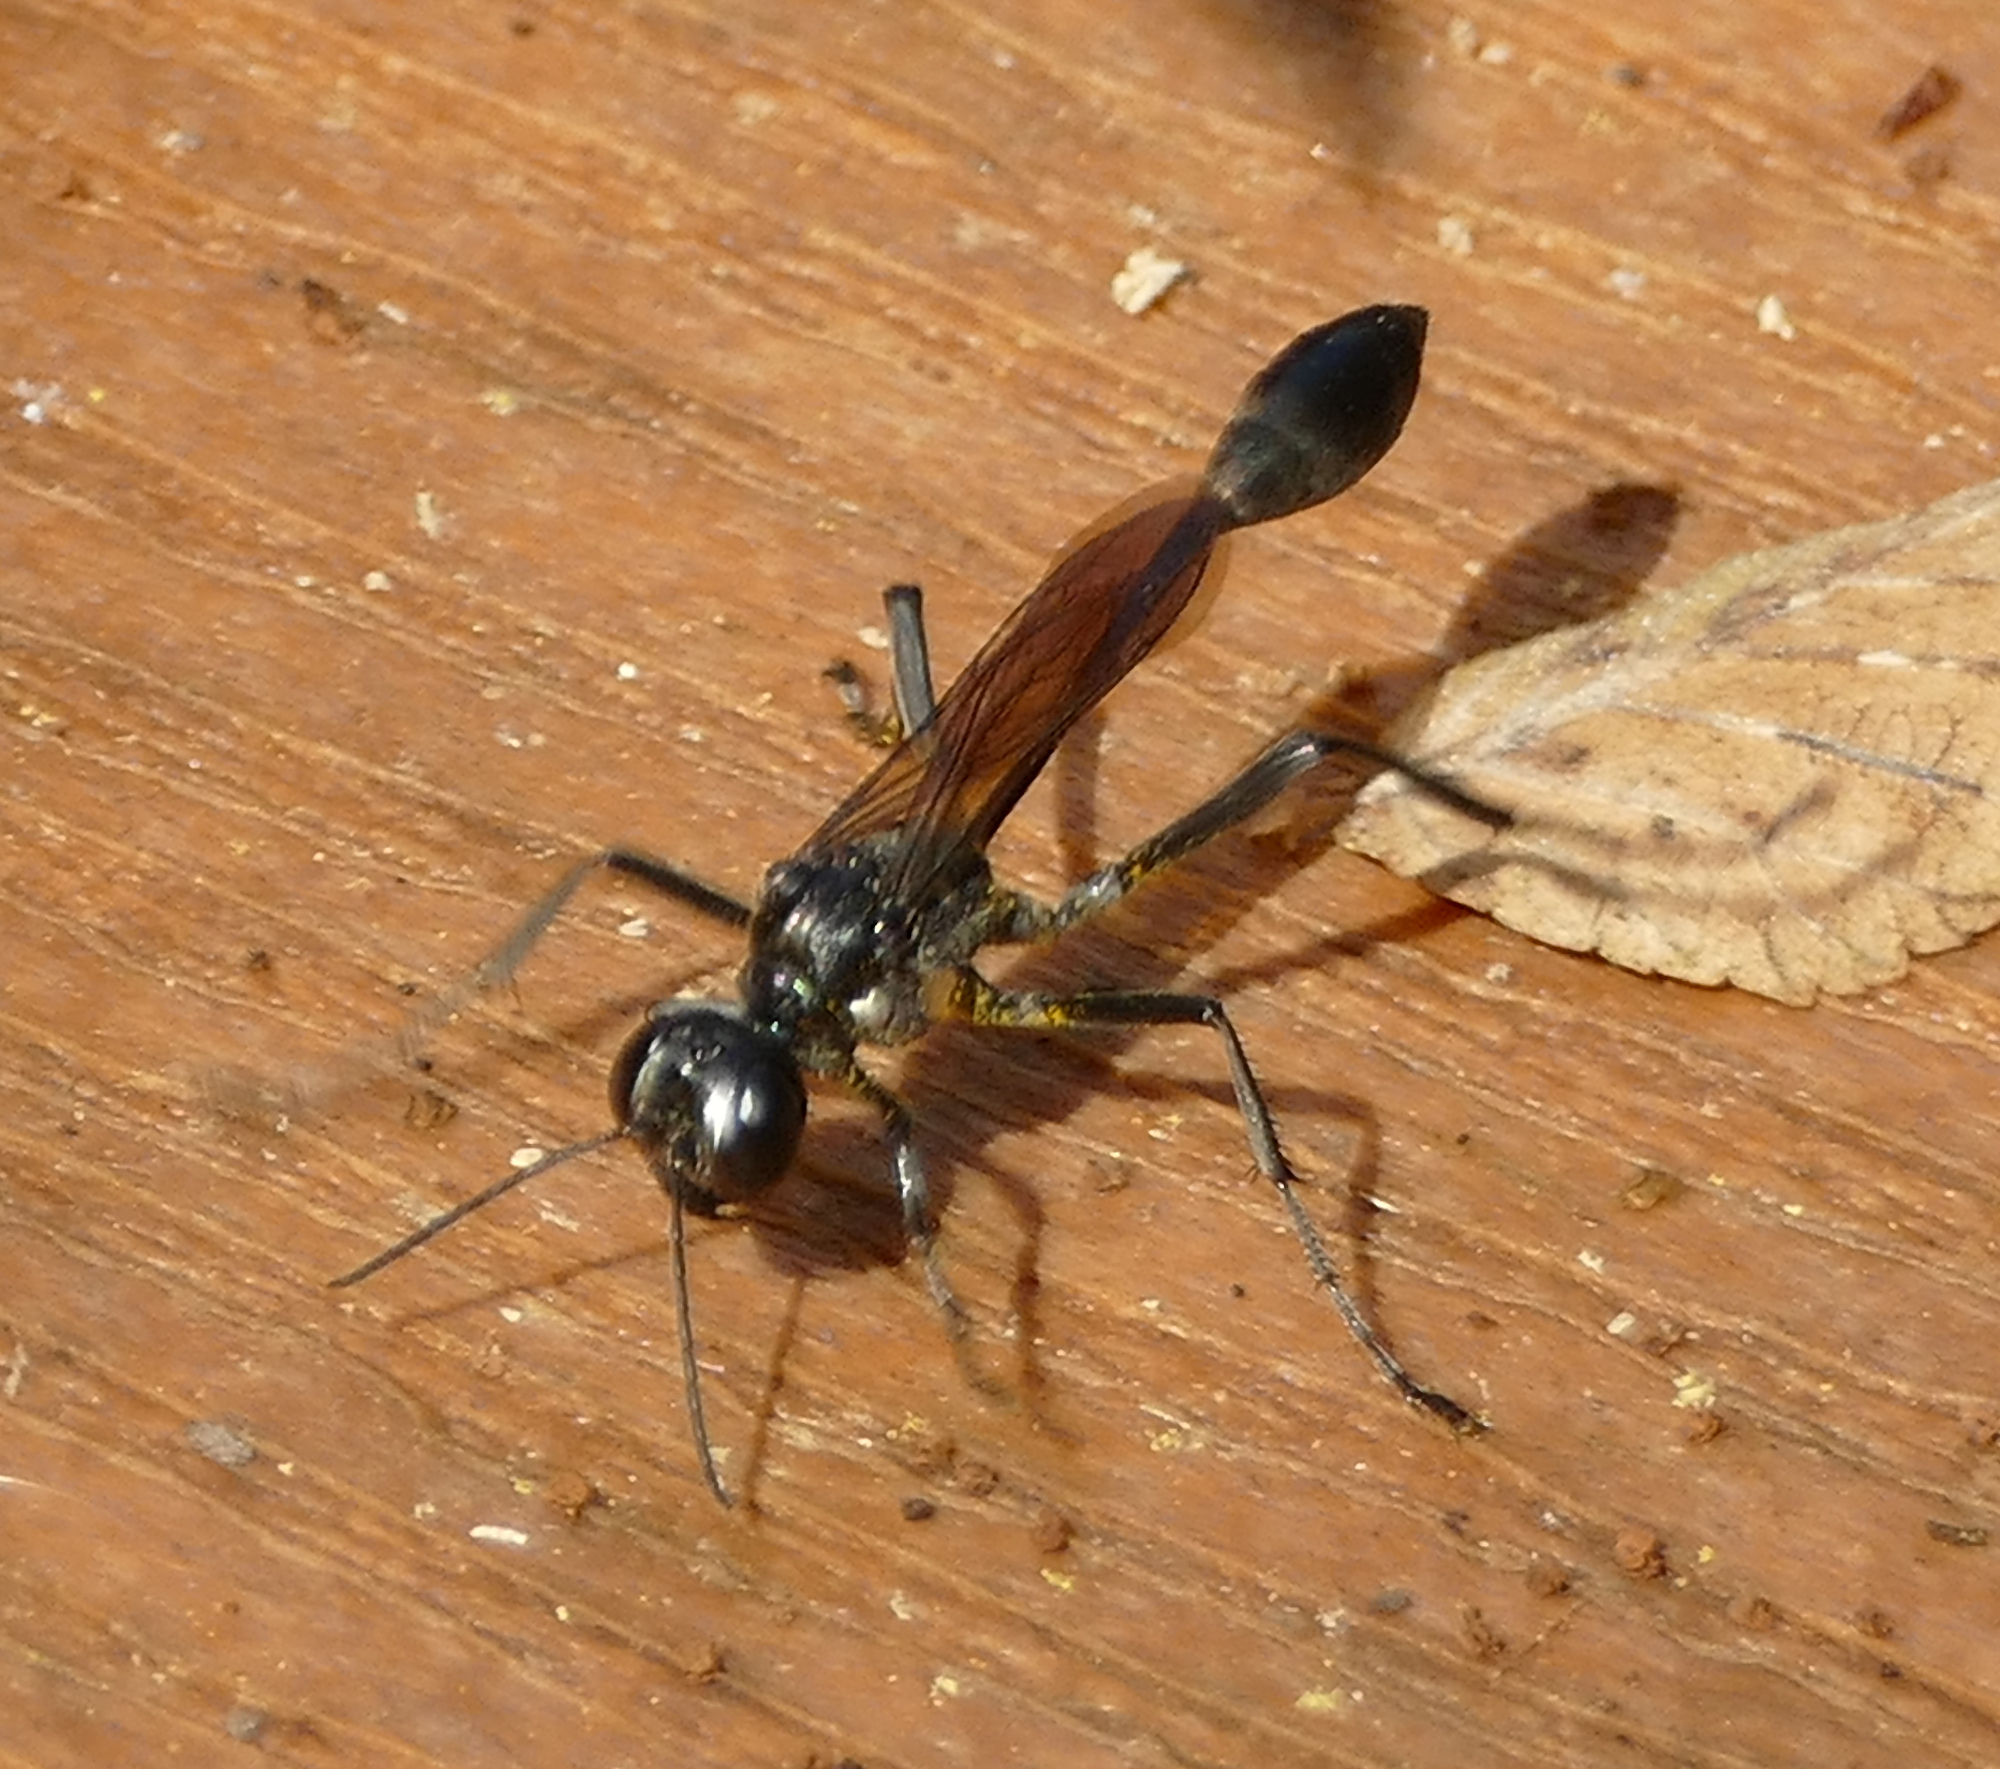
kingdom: Animalia
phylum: Arthropoda
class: Insecta
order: Hymenoptera
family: Sphecidae
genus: Eremnophila
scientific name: Eremnophila aureonotata
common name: Gold-marked thread-waisted wasp
